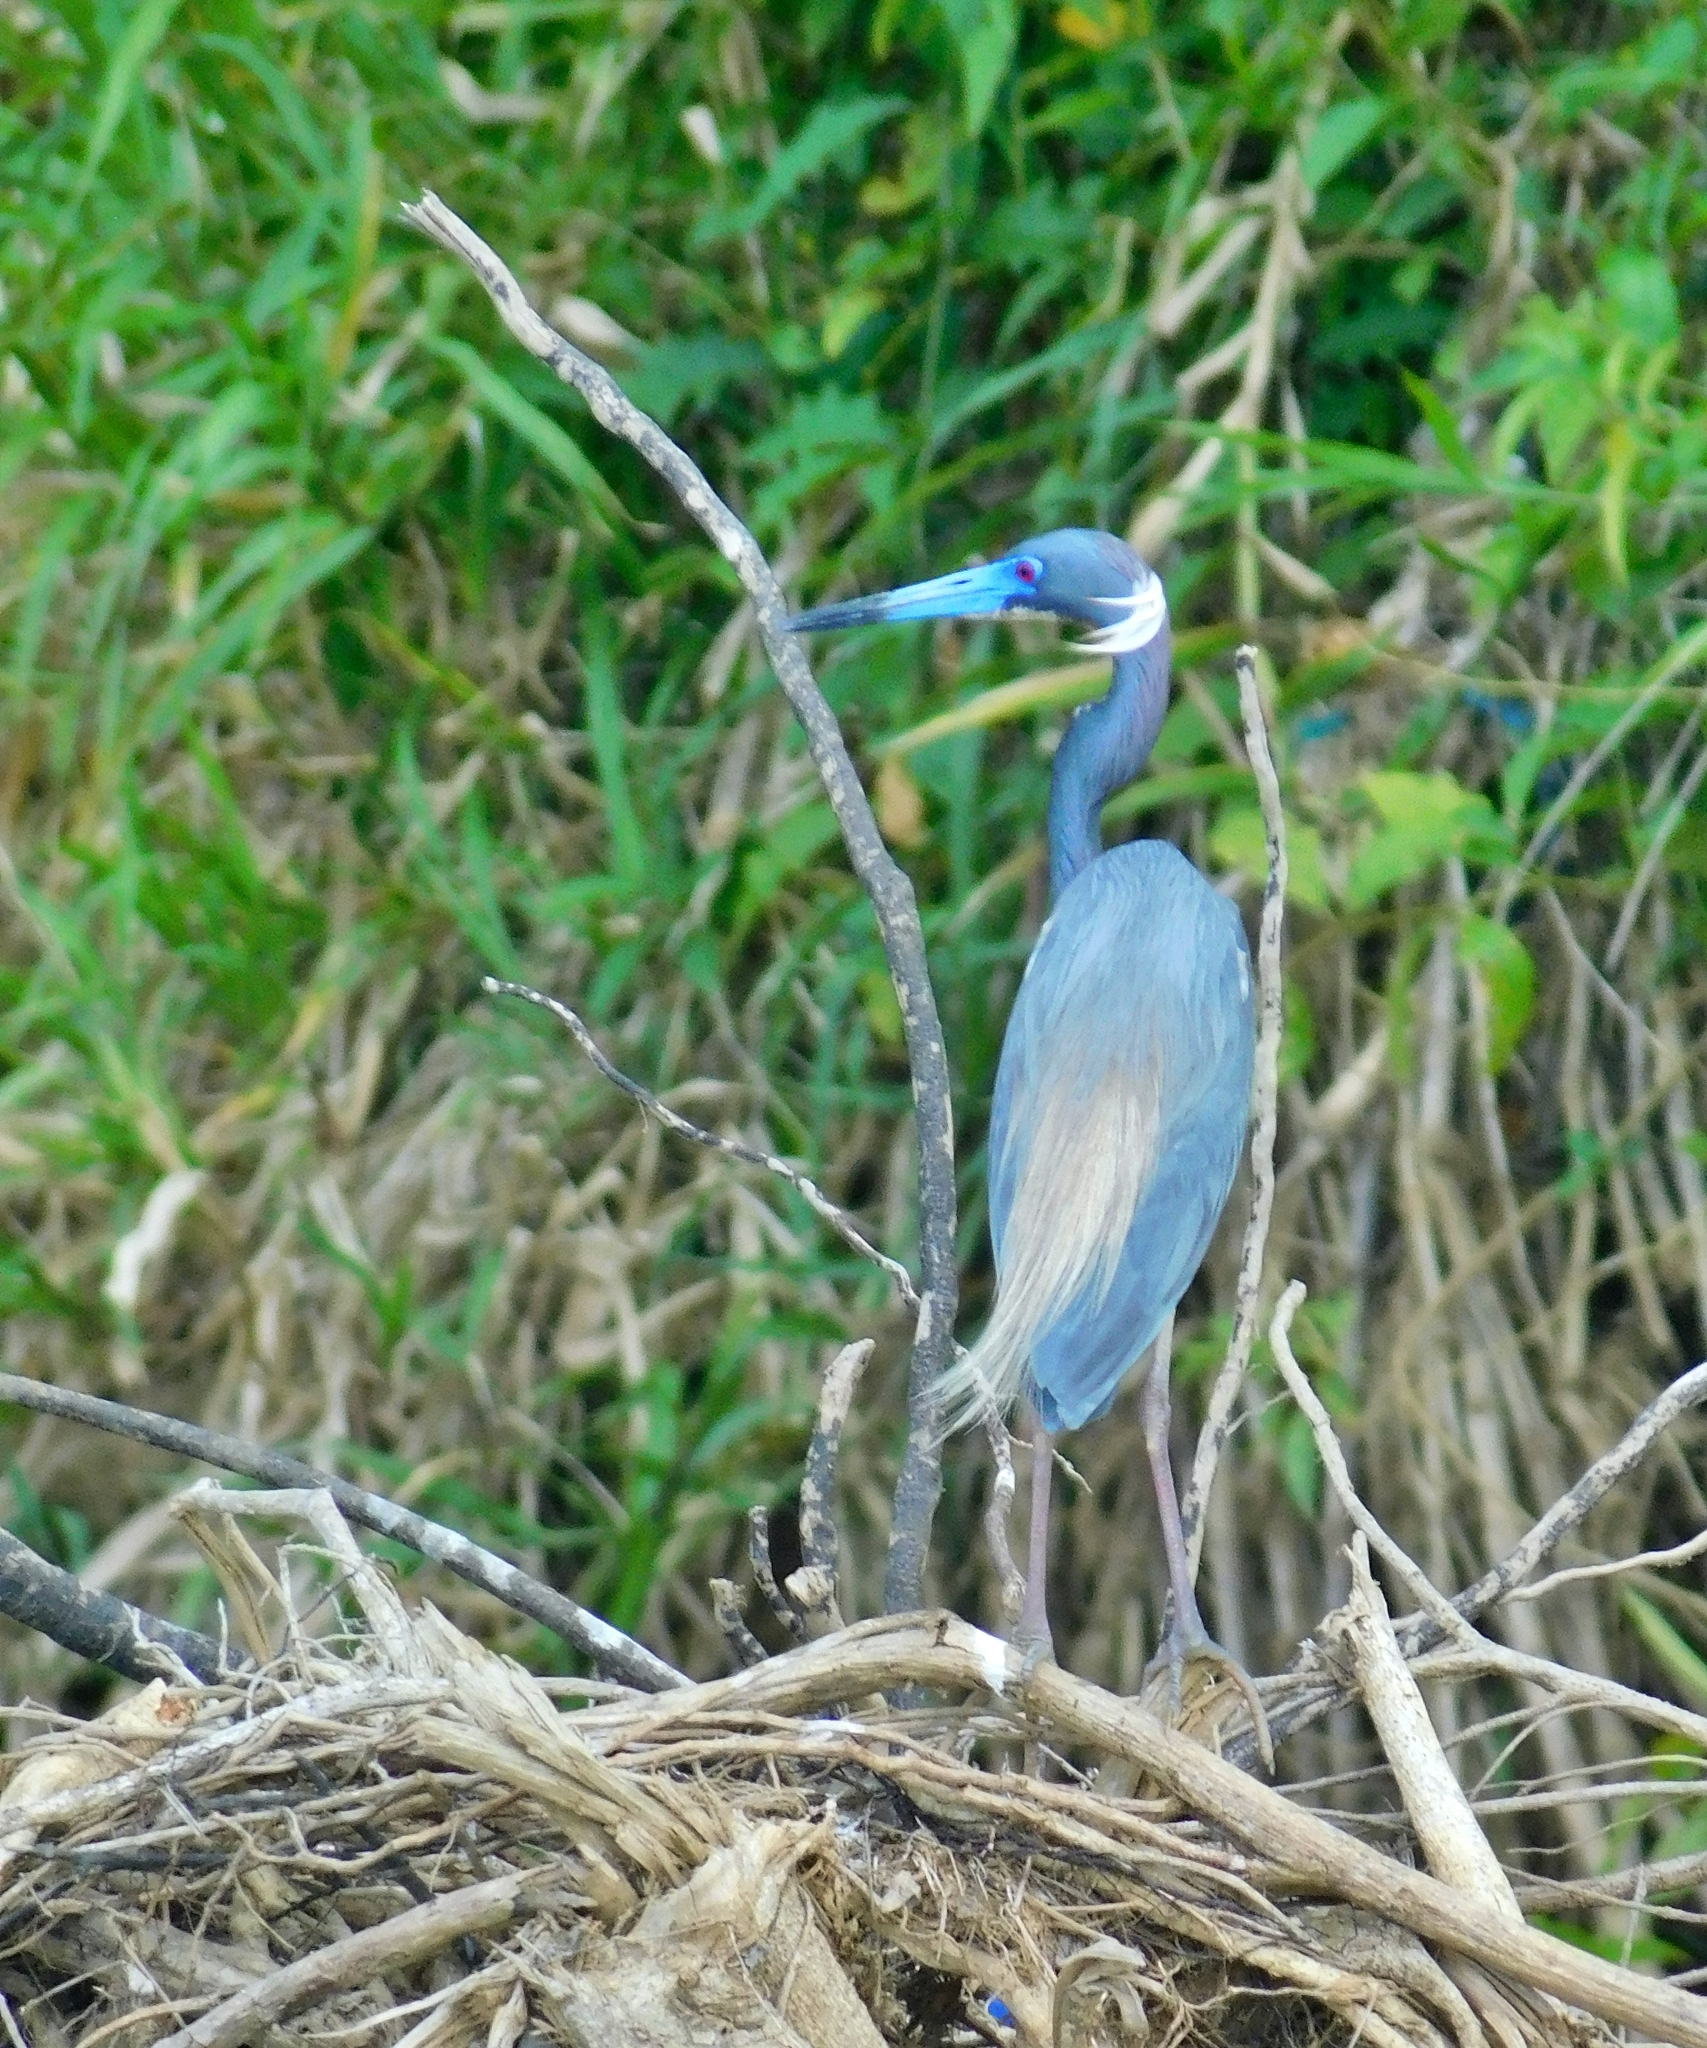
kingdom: Animalia
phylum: Chordata
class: Aves
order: Pelecaniformes
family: Ardeidae
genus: Egretta
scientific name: Egretta tricolor
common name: Tricolored heron
